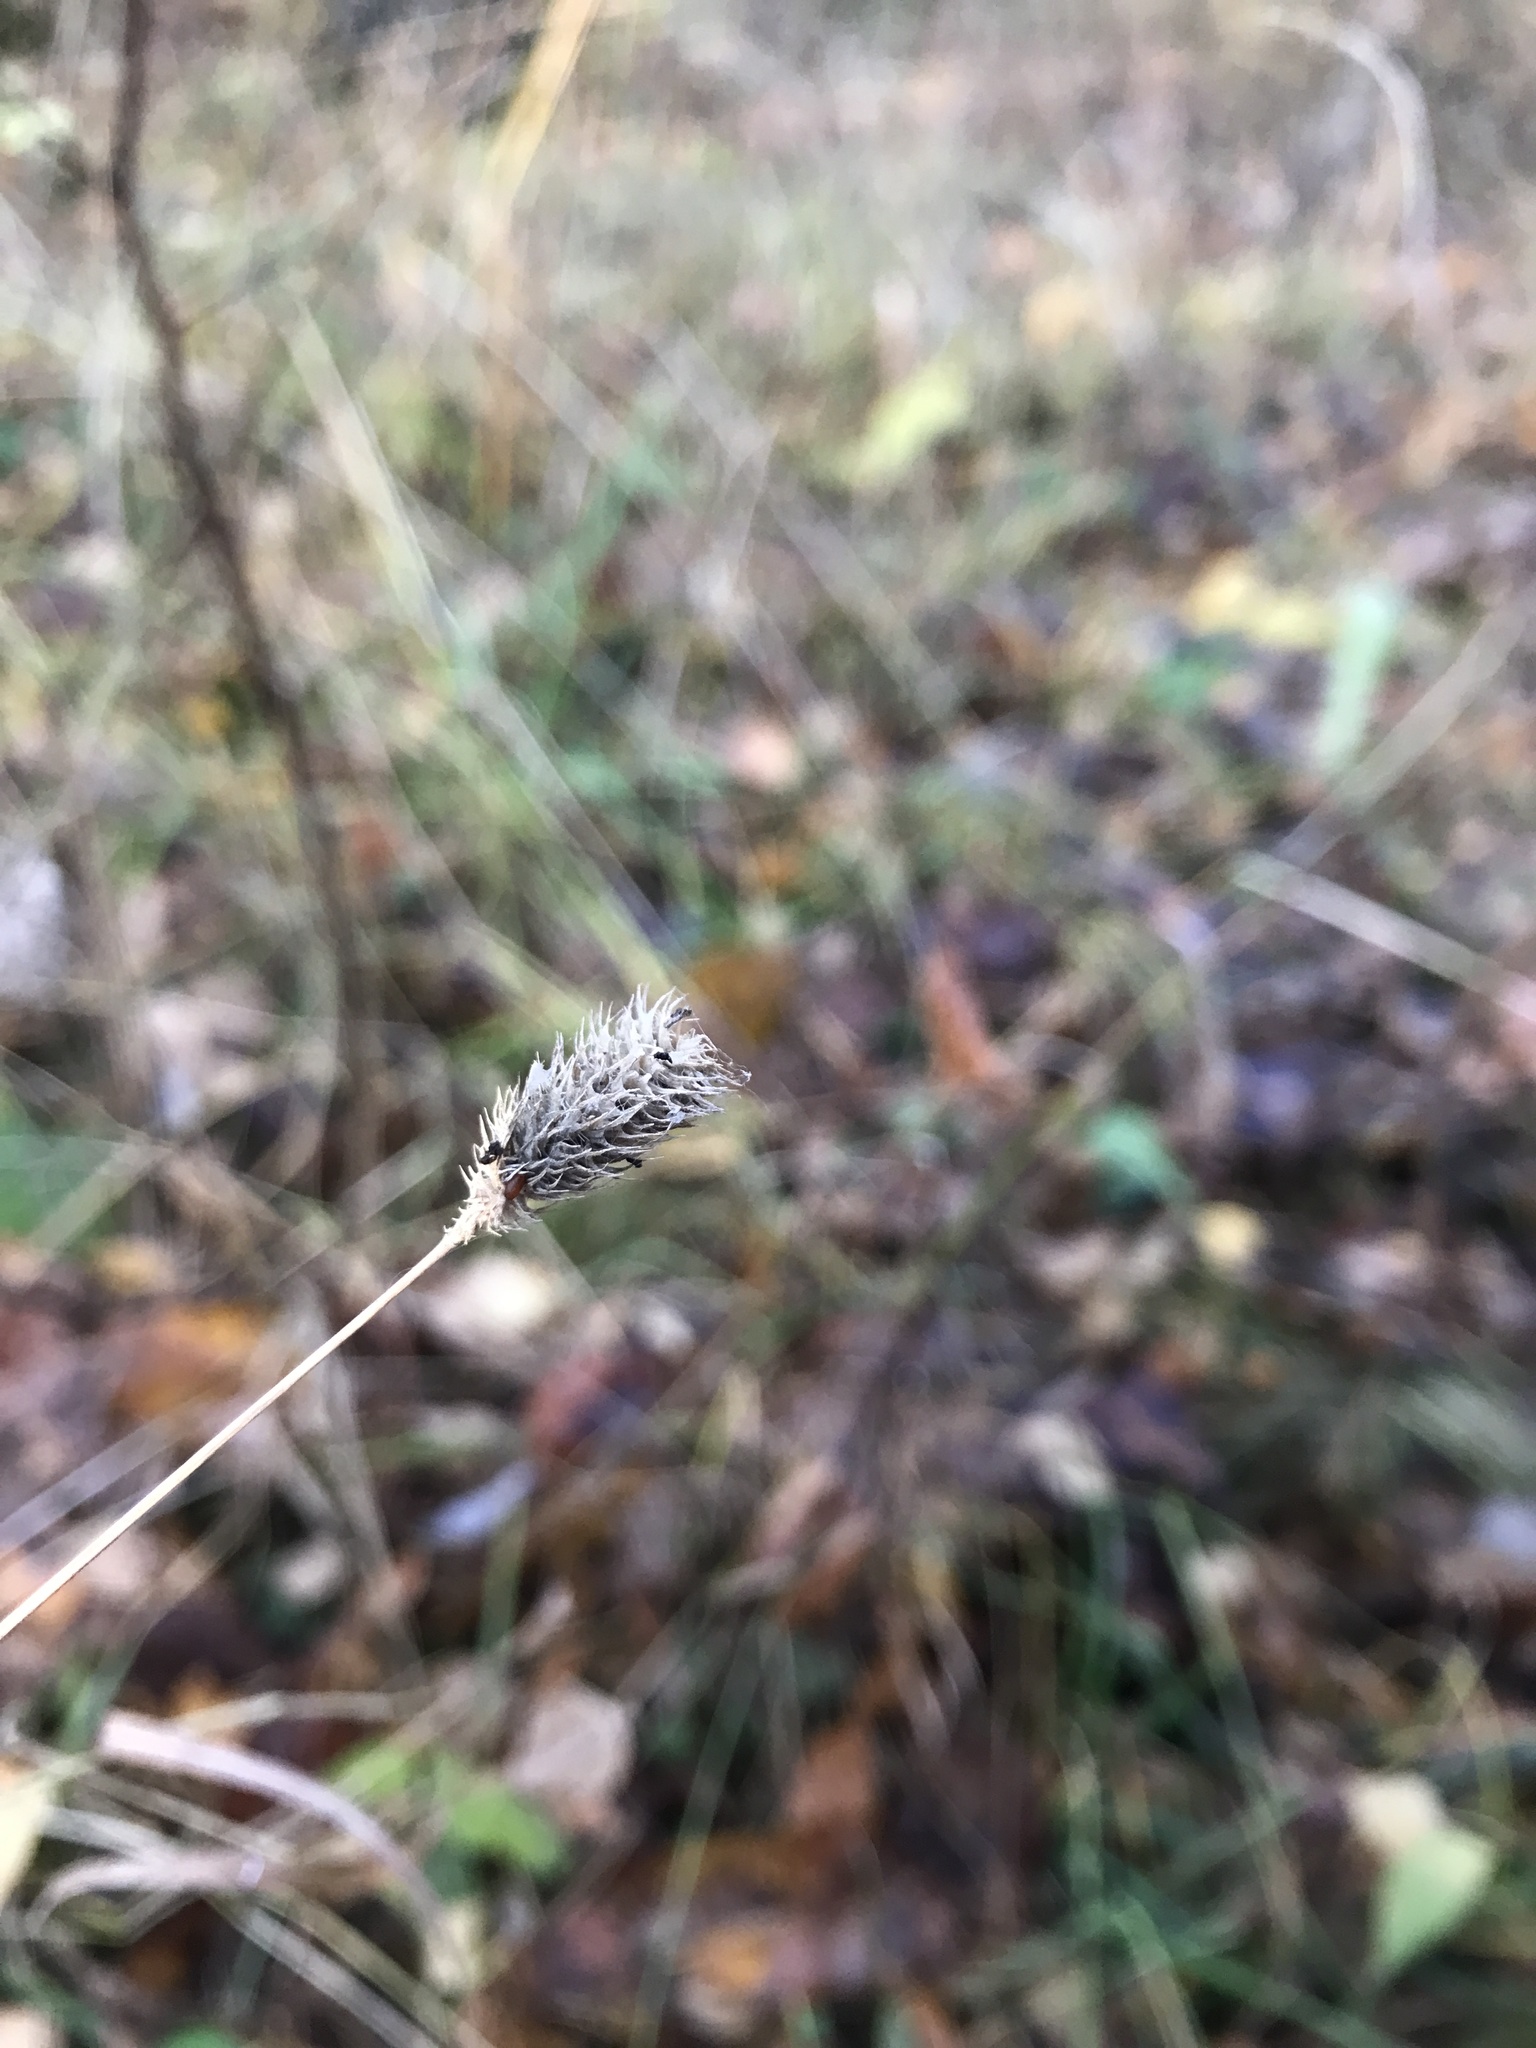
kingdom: Plantae
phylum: Tracheophyta
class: Liliopsida
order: Poales
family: Poaceae
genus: Phleum
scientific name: Phleum pratense
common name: Timothy grass
